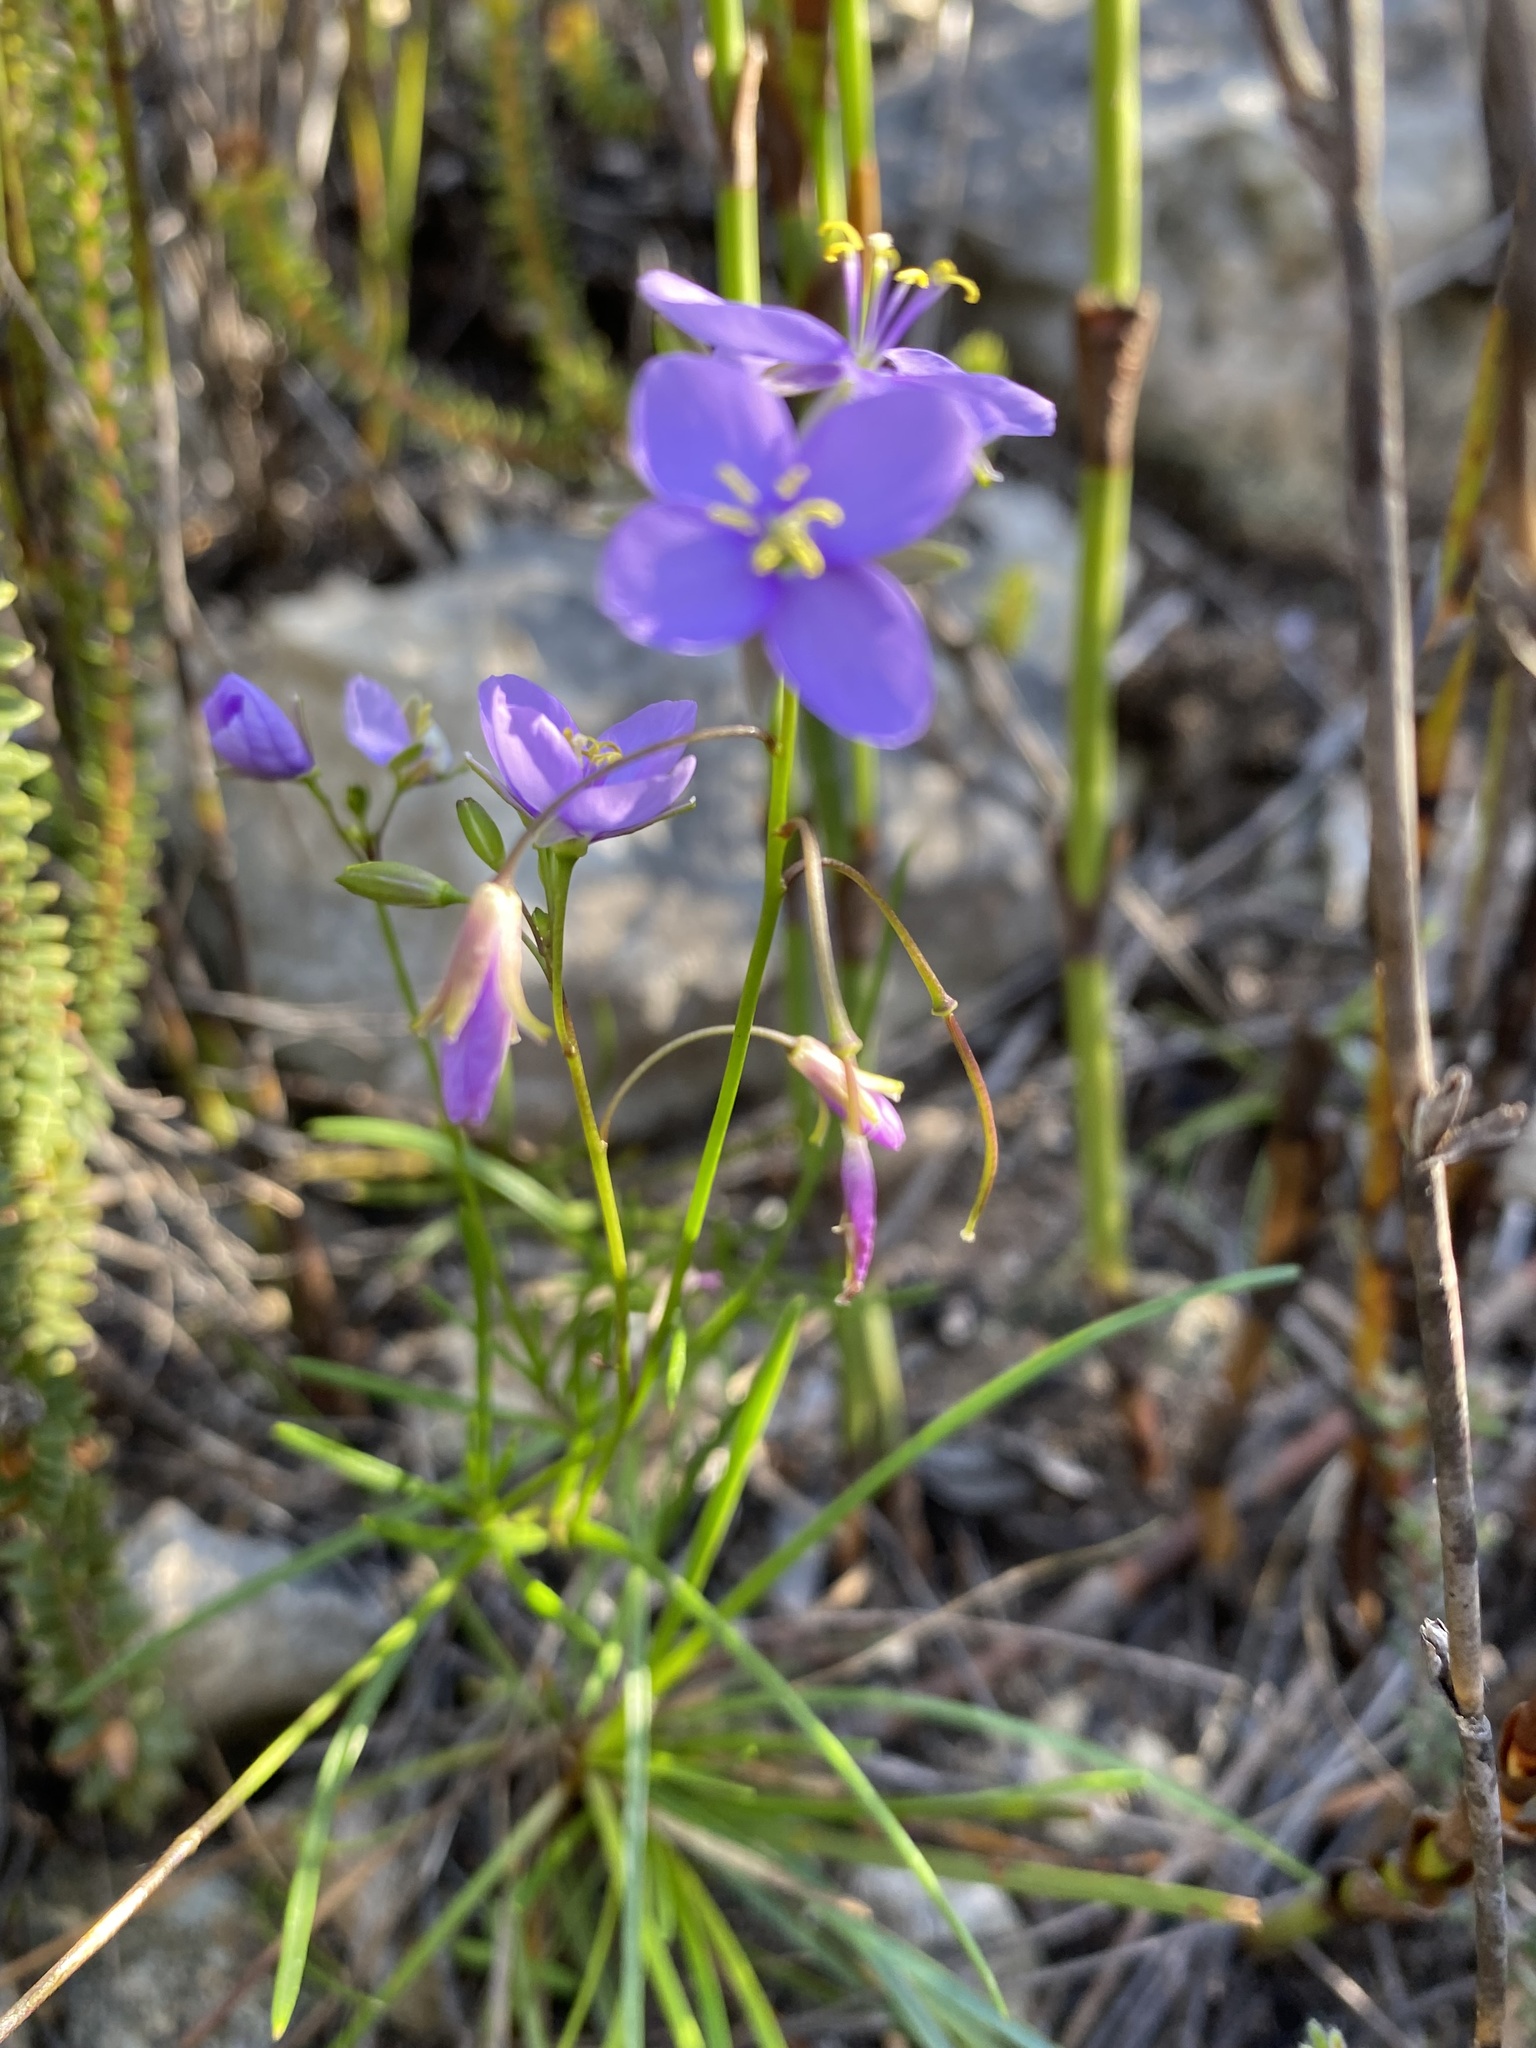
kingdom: Plantae
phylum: Tracheophyta
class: Magnoliopsida
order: Brassicales
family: Brassicaceae
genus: Heliophila
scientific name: Heliophila subulata
